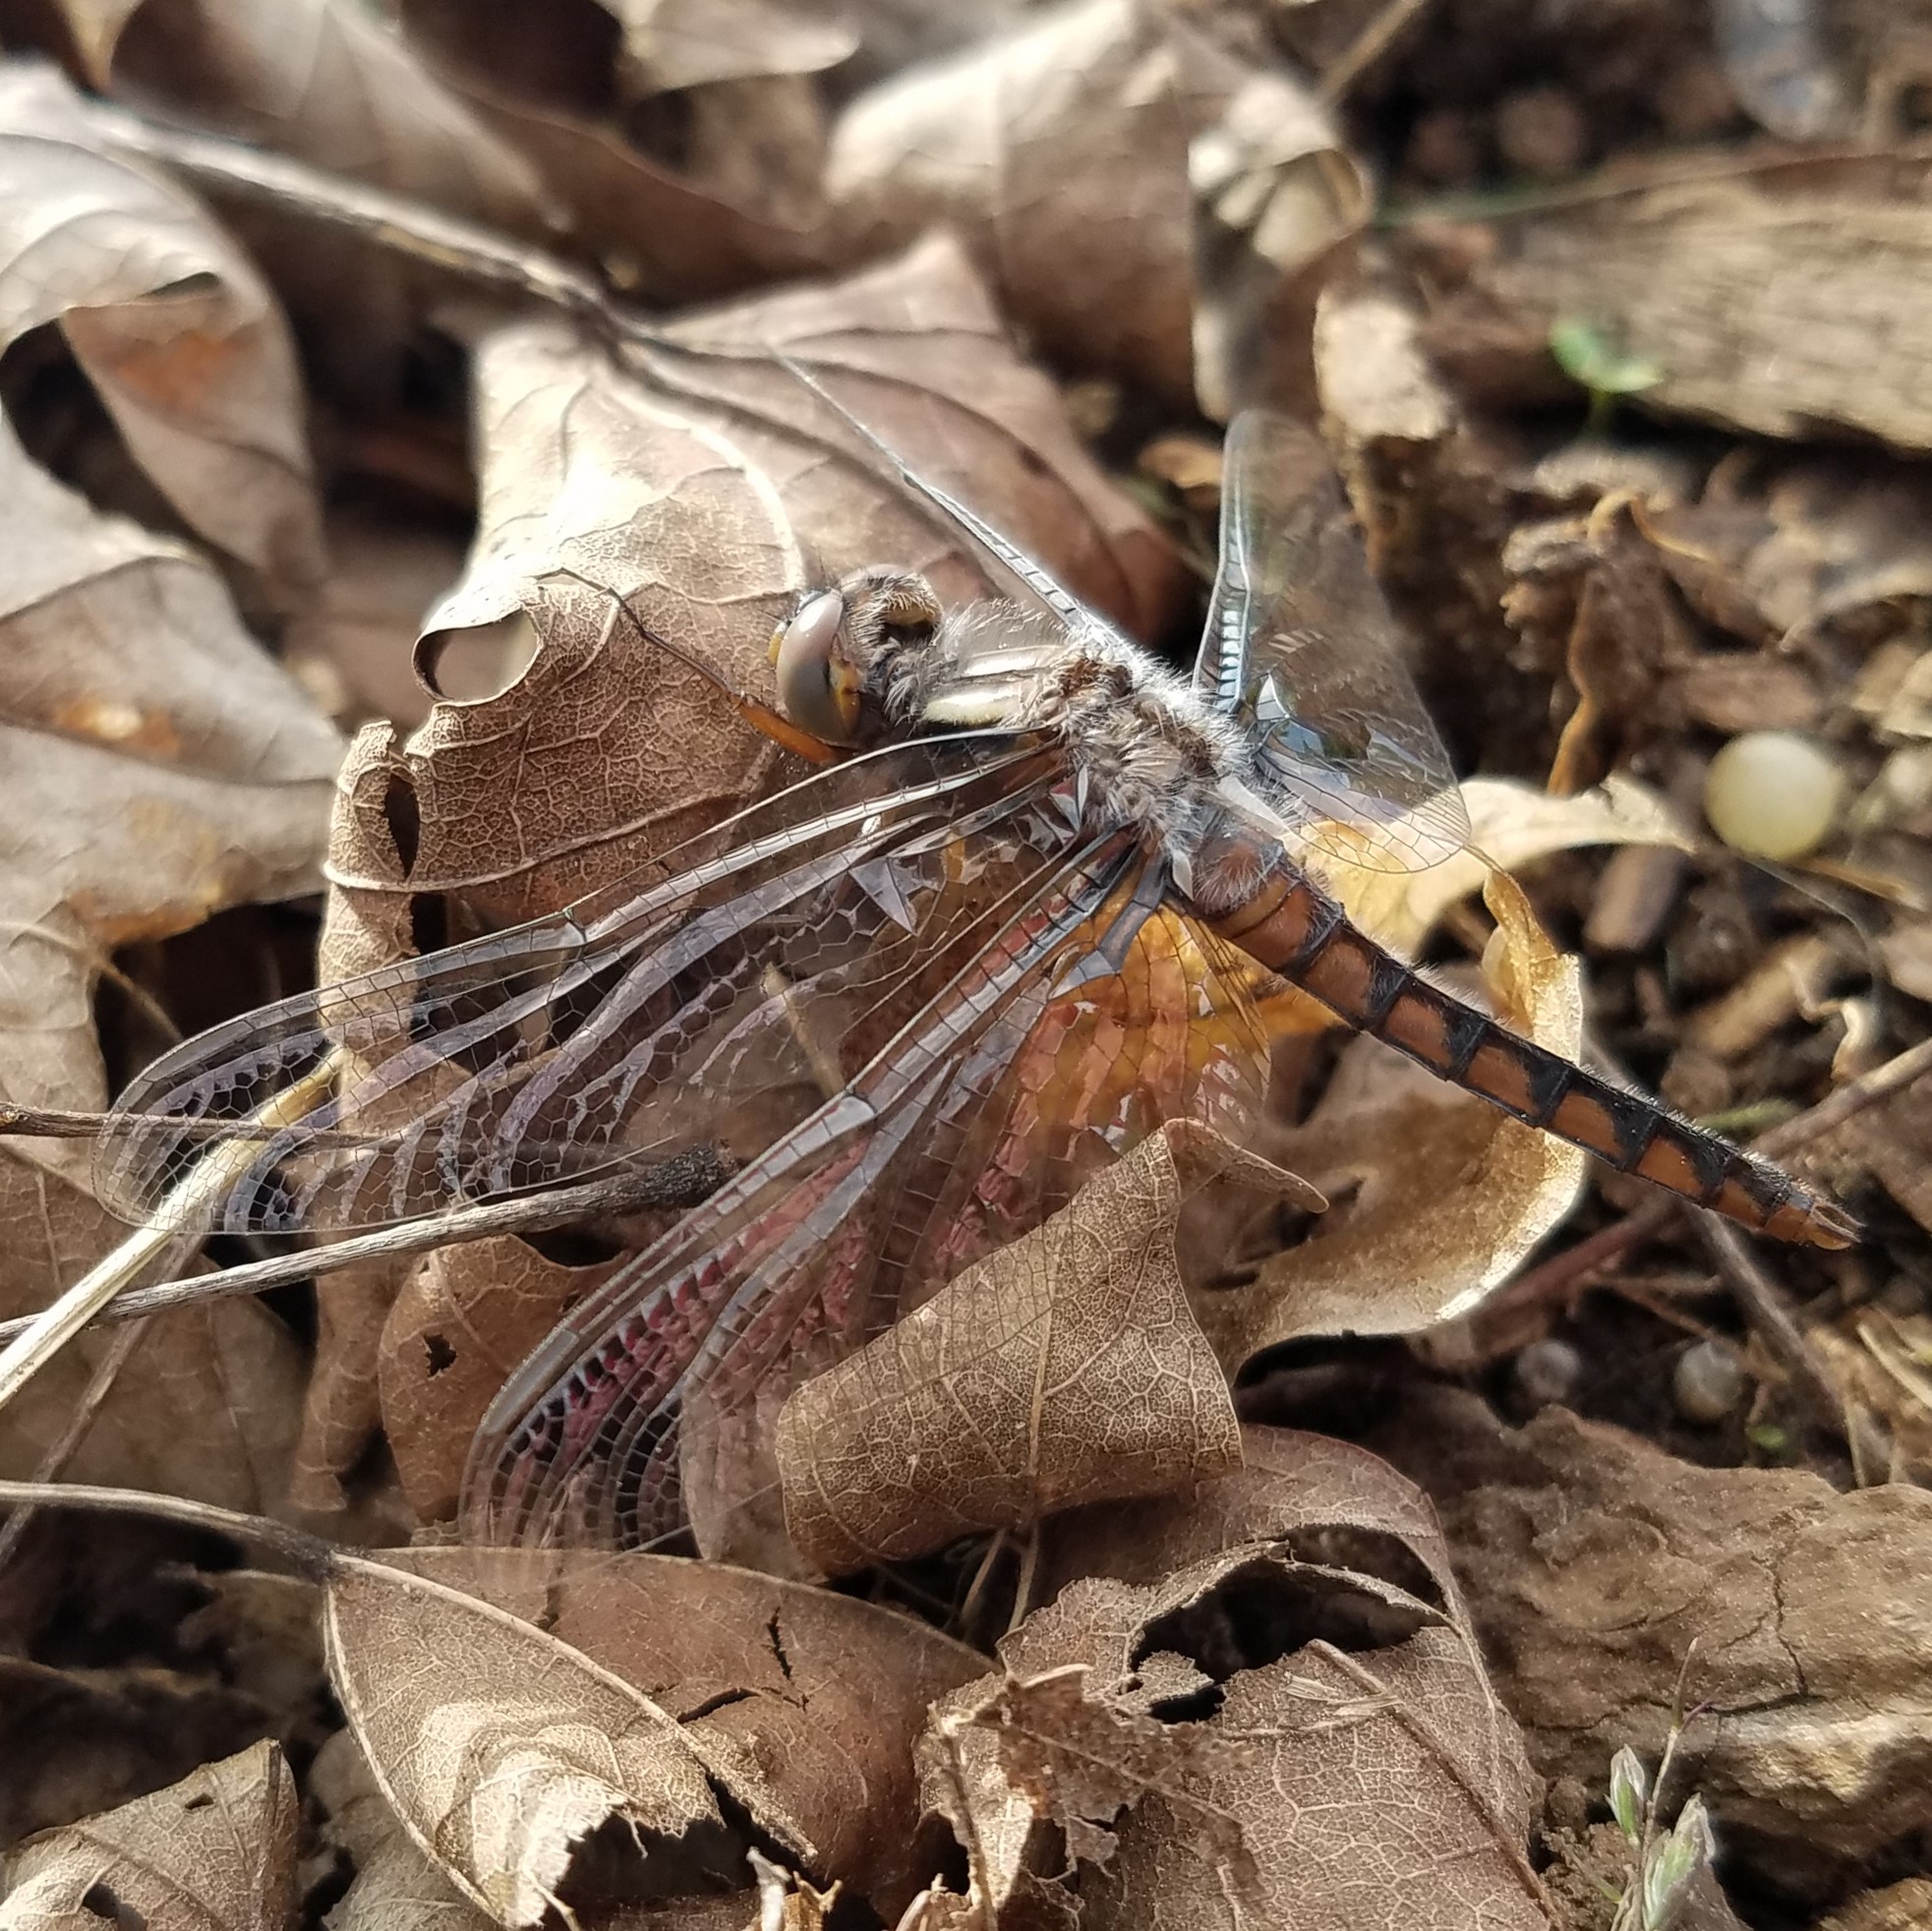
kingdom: Animalia
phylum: Arthropoda
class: Insecta
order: Odonata
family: Libellulidae
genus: Ladona
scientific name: Ladona deplanata
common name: Blue corporal
